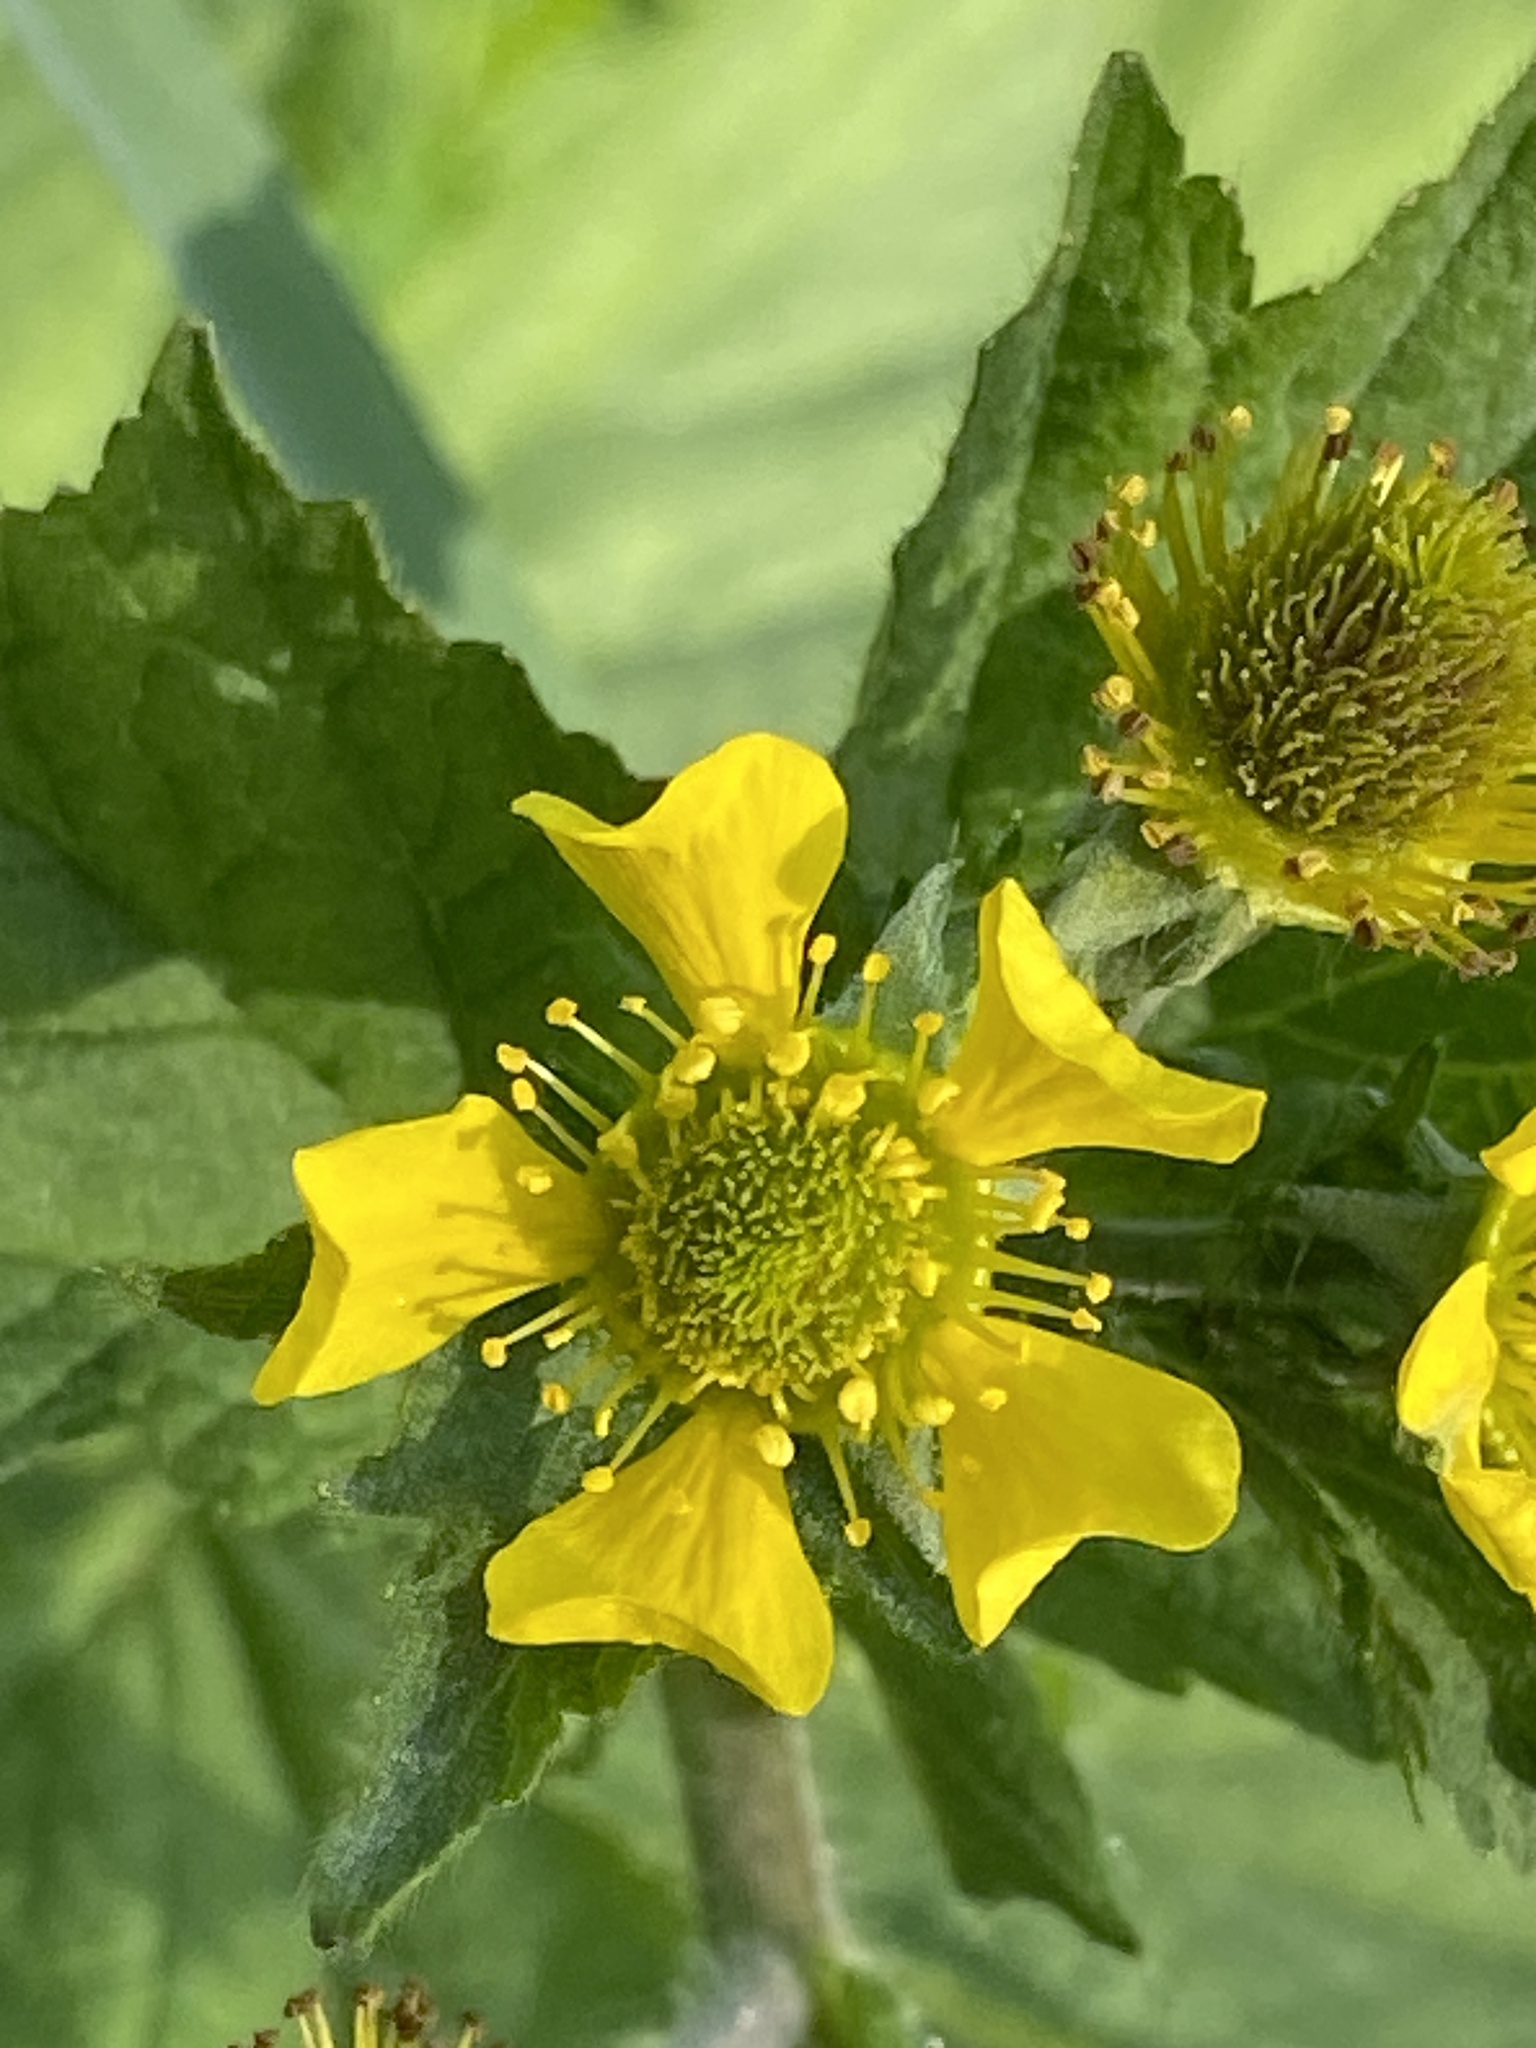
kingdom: Plantae
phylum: Tracheophyta
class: Magnoliopsida
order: Rosales
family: Rosaceae
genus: Geum
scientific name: Geum macrophyllum
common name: Large-leaved avens
